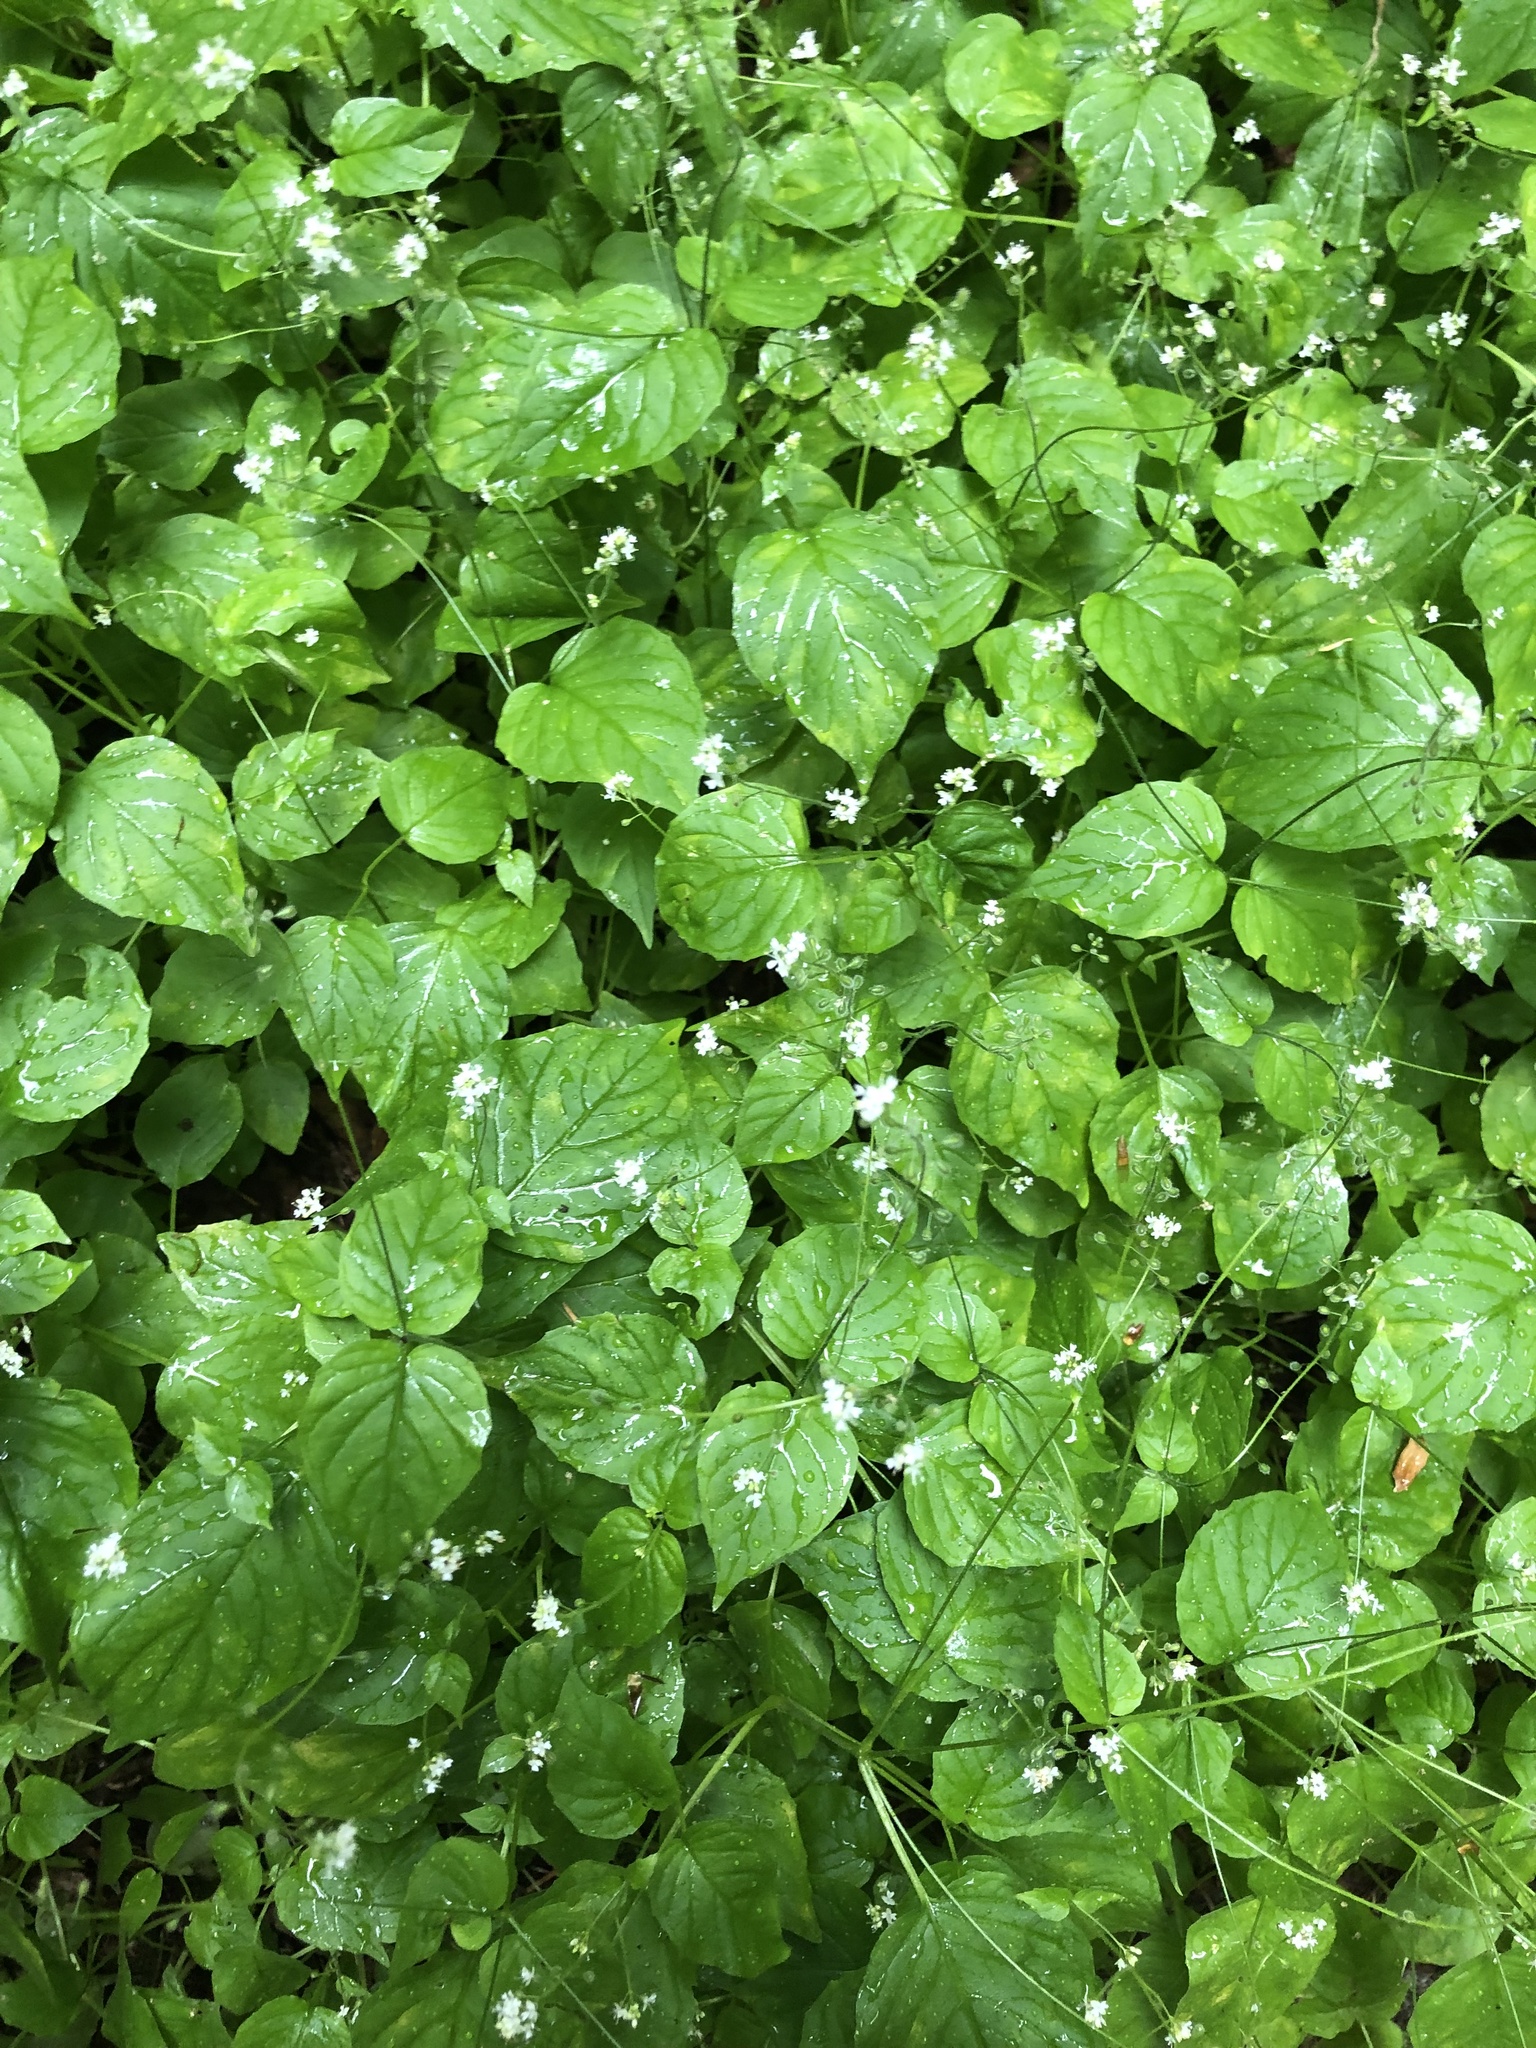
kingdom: Plantae
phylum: Tracheophyta
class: Magnoliopsida
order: Myrtales
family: Onagraceae
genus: Circaea
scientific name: Circaea alpina
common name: Alpine enchanter's-nightshade
